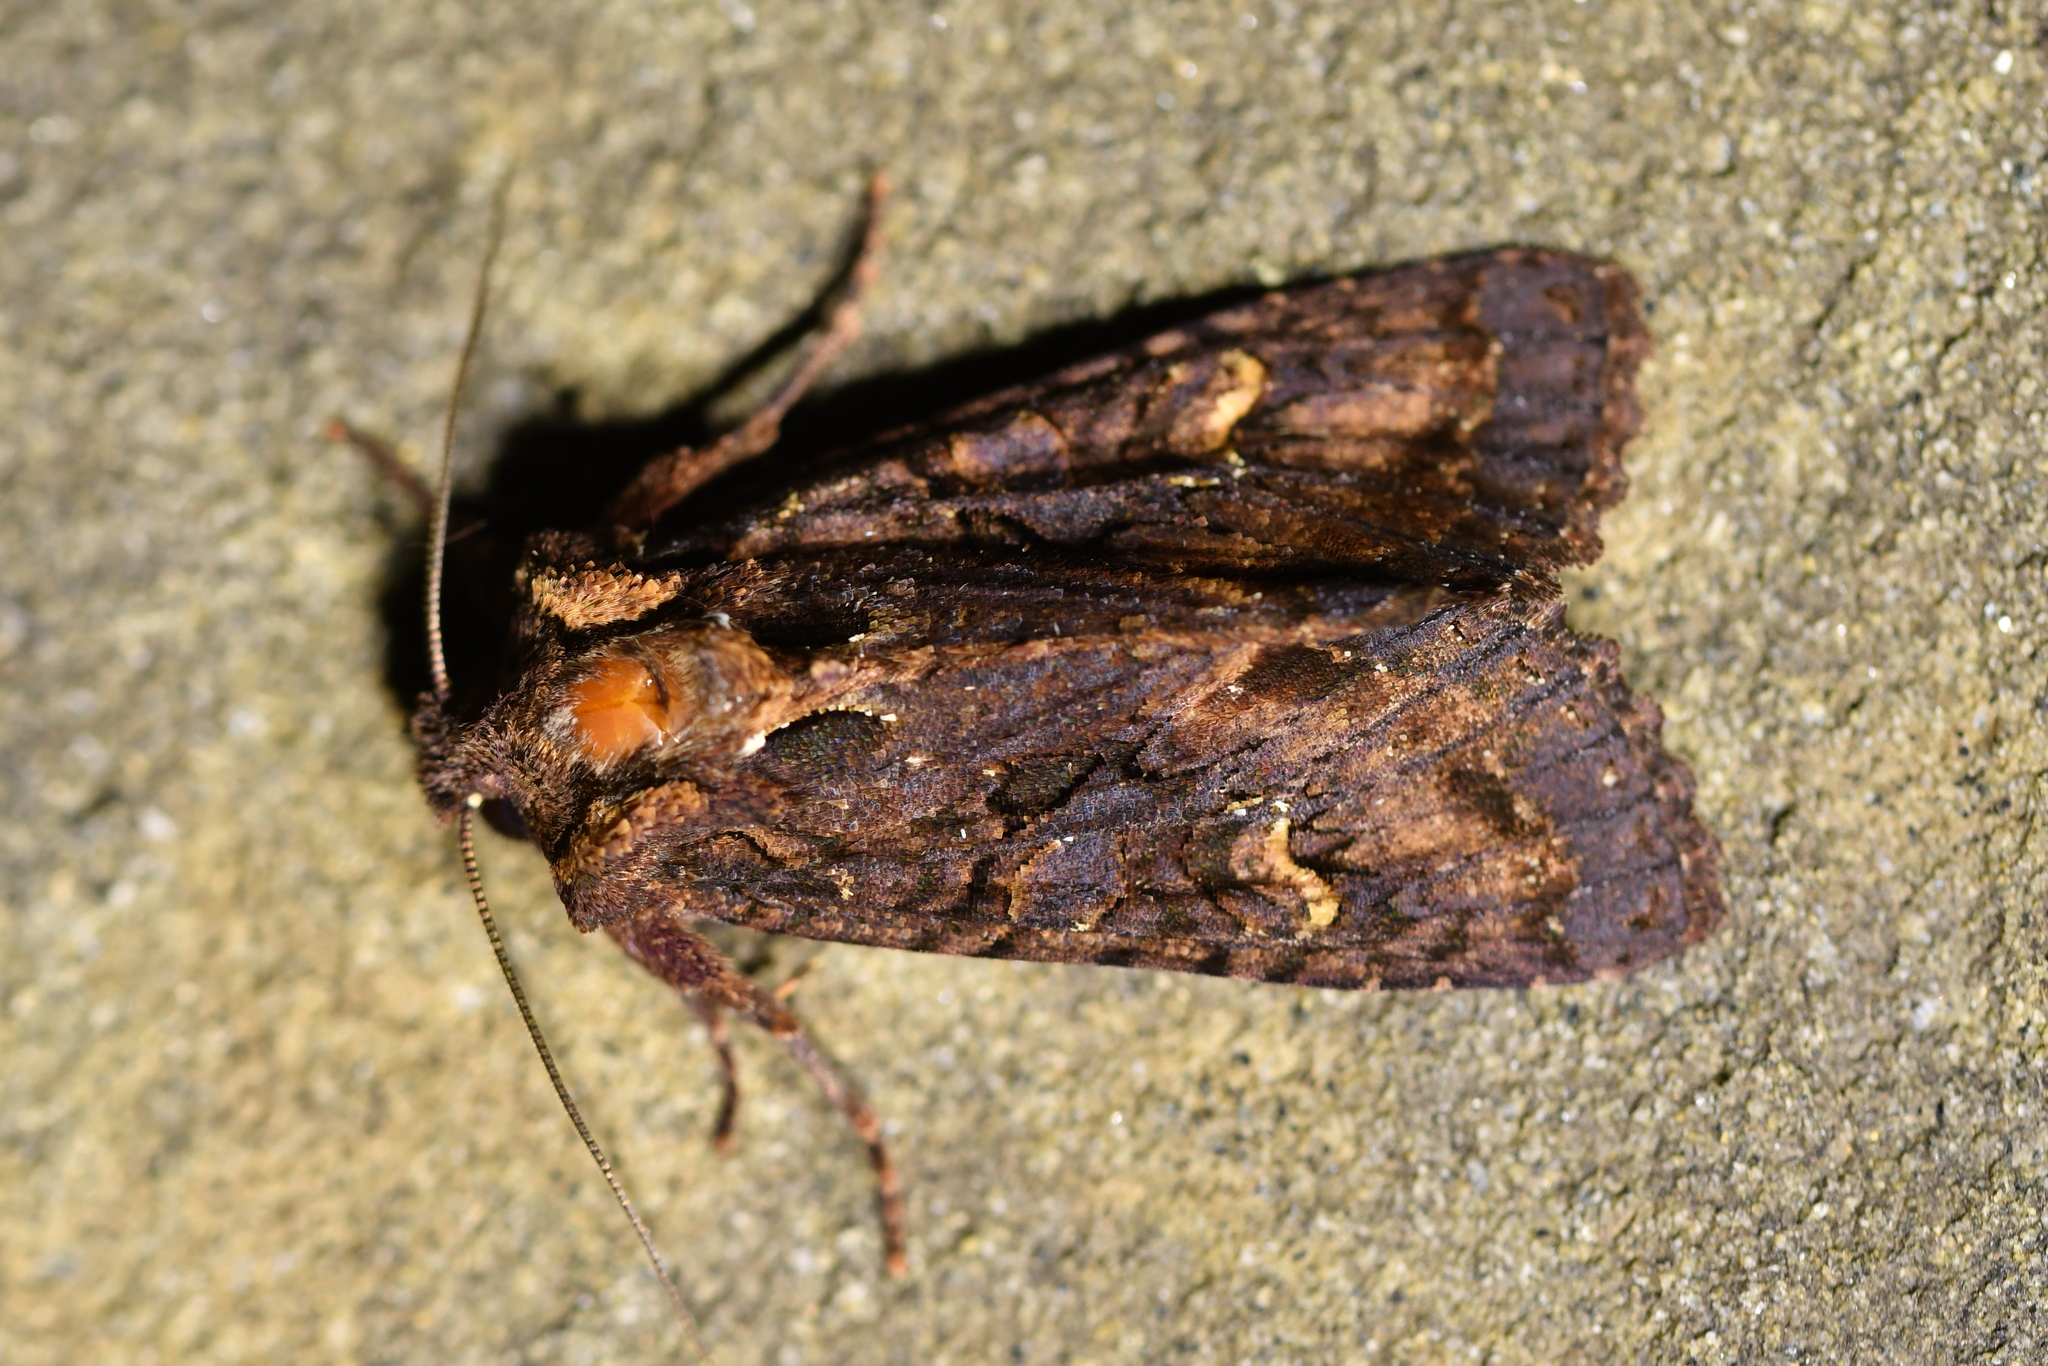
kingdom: Animalia
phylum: Arthropoda
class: Insecta
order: Lepidoptera
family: Noctuidae
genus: Meterana
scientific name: Meterana dotata
